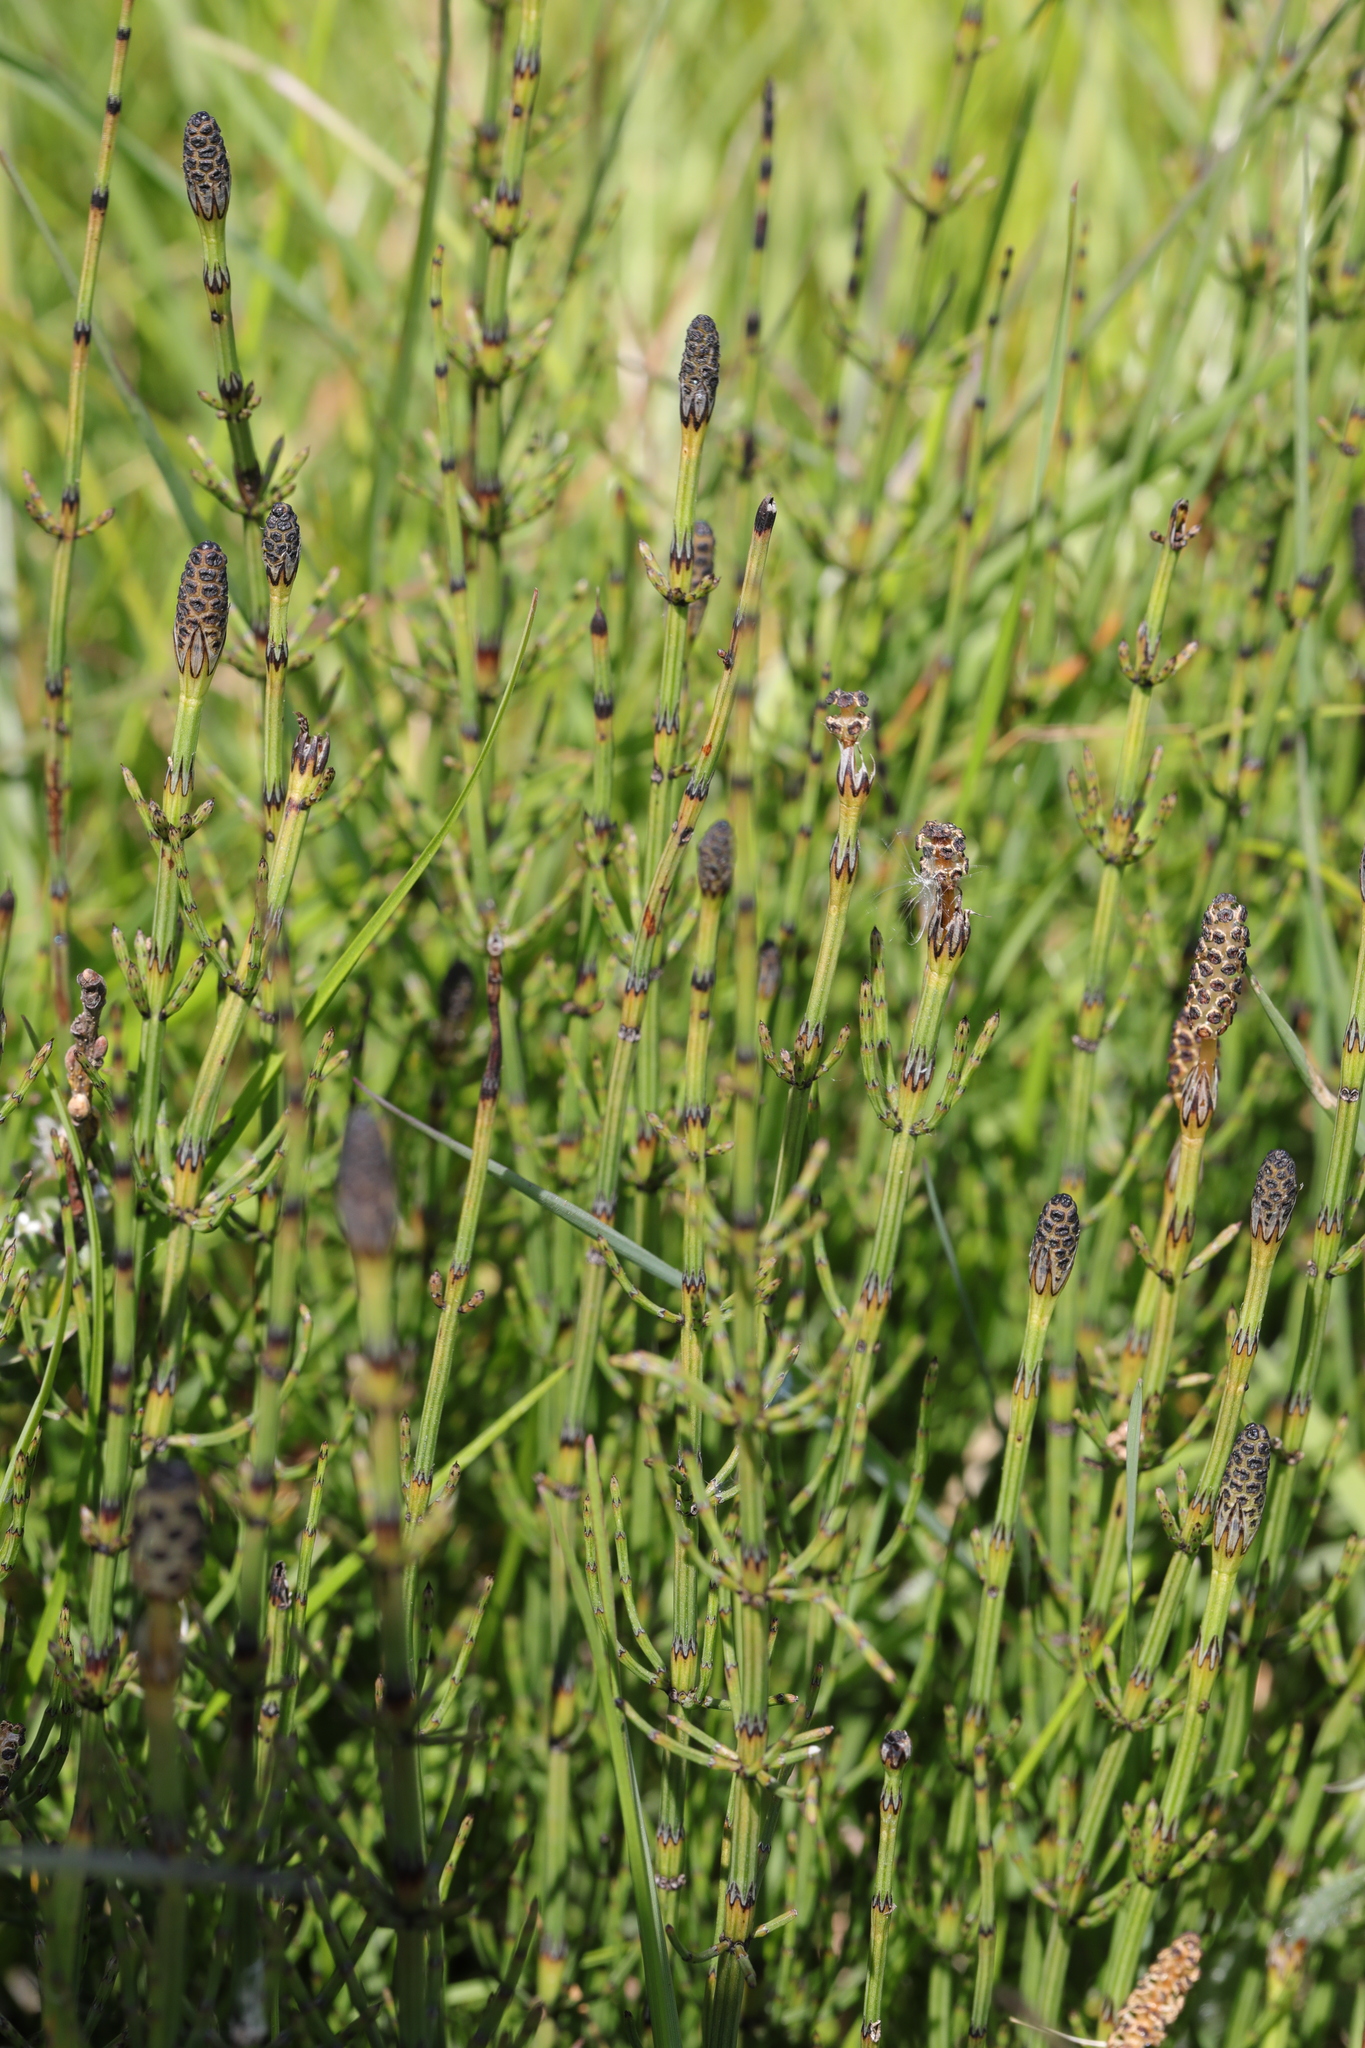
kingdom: Plantae
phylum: Tracheophyta
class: Polypodiopsida
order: Equisetales
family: Equisetaceae
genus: Equisetum
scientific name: Equisetum palustre
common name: Marsh horsetail
